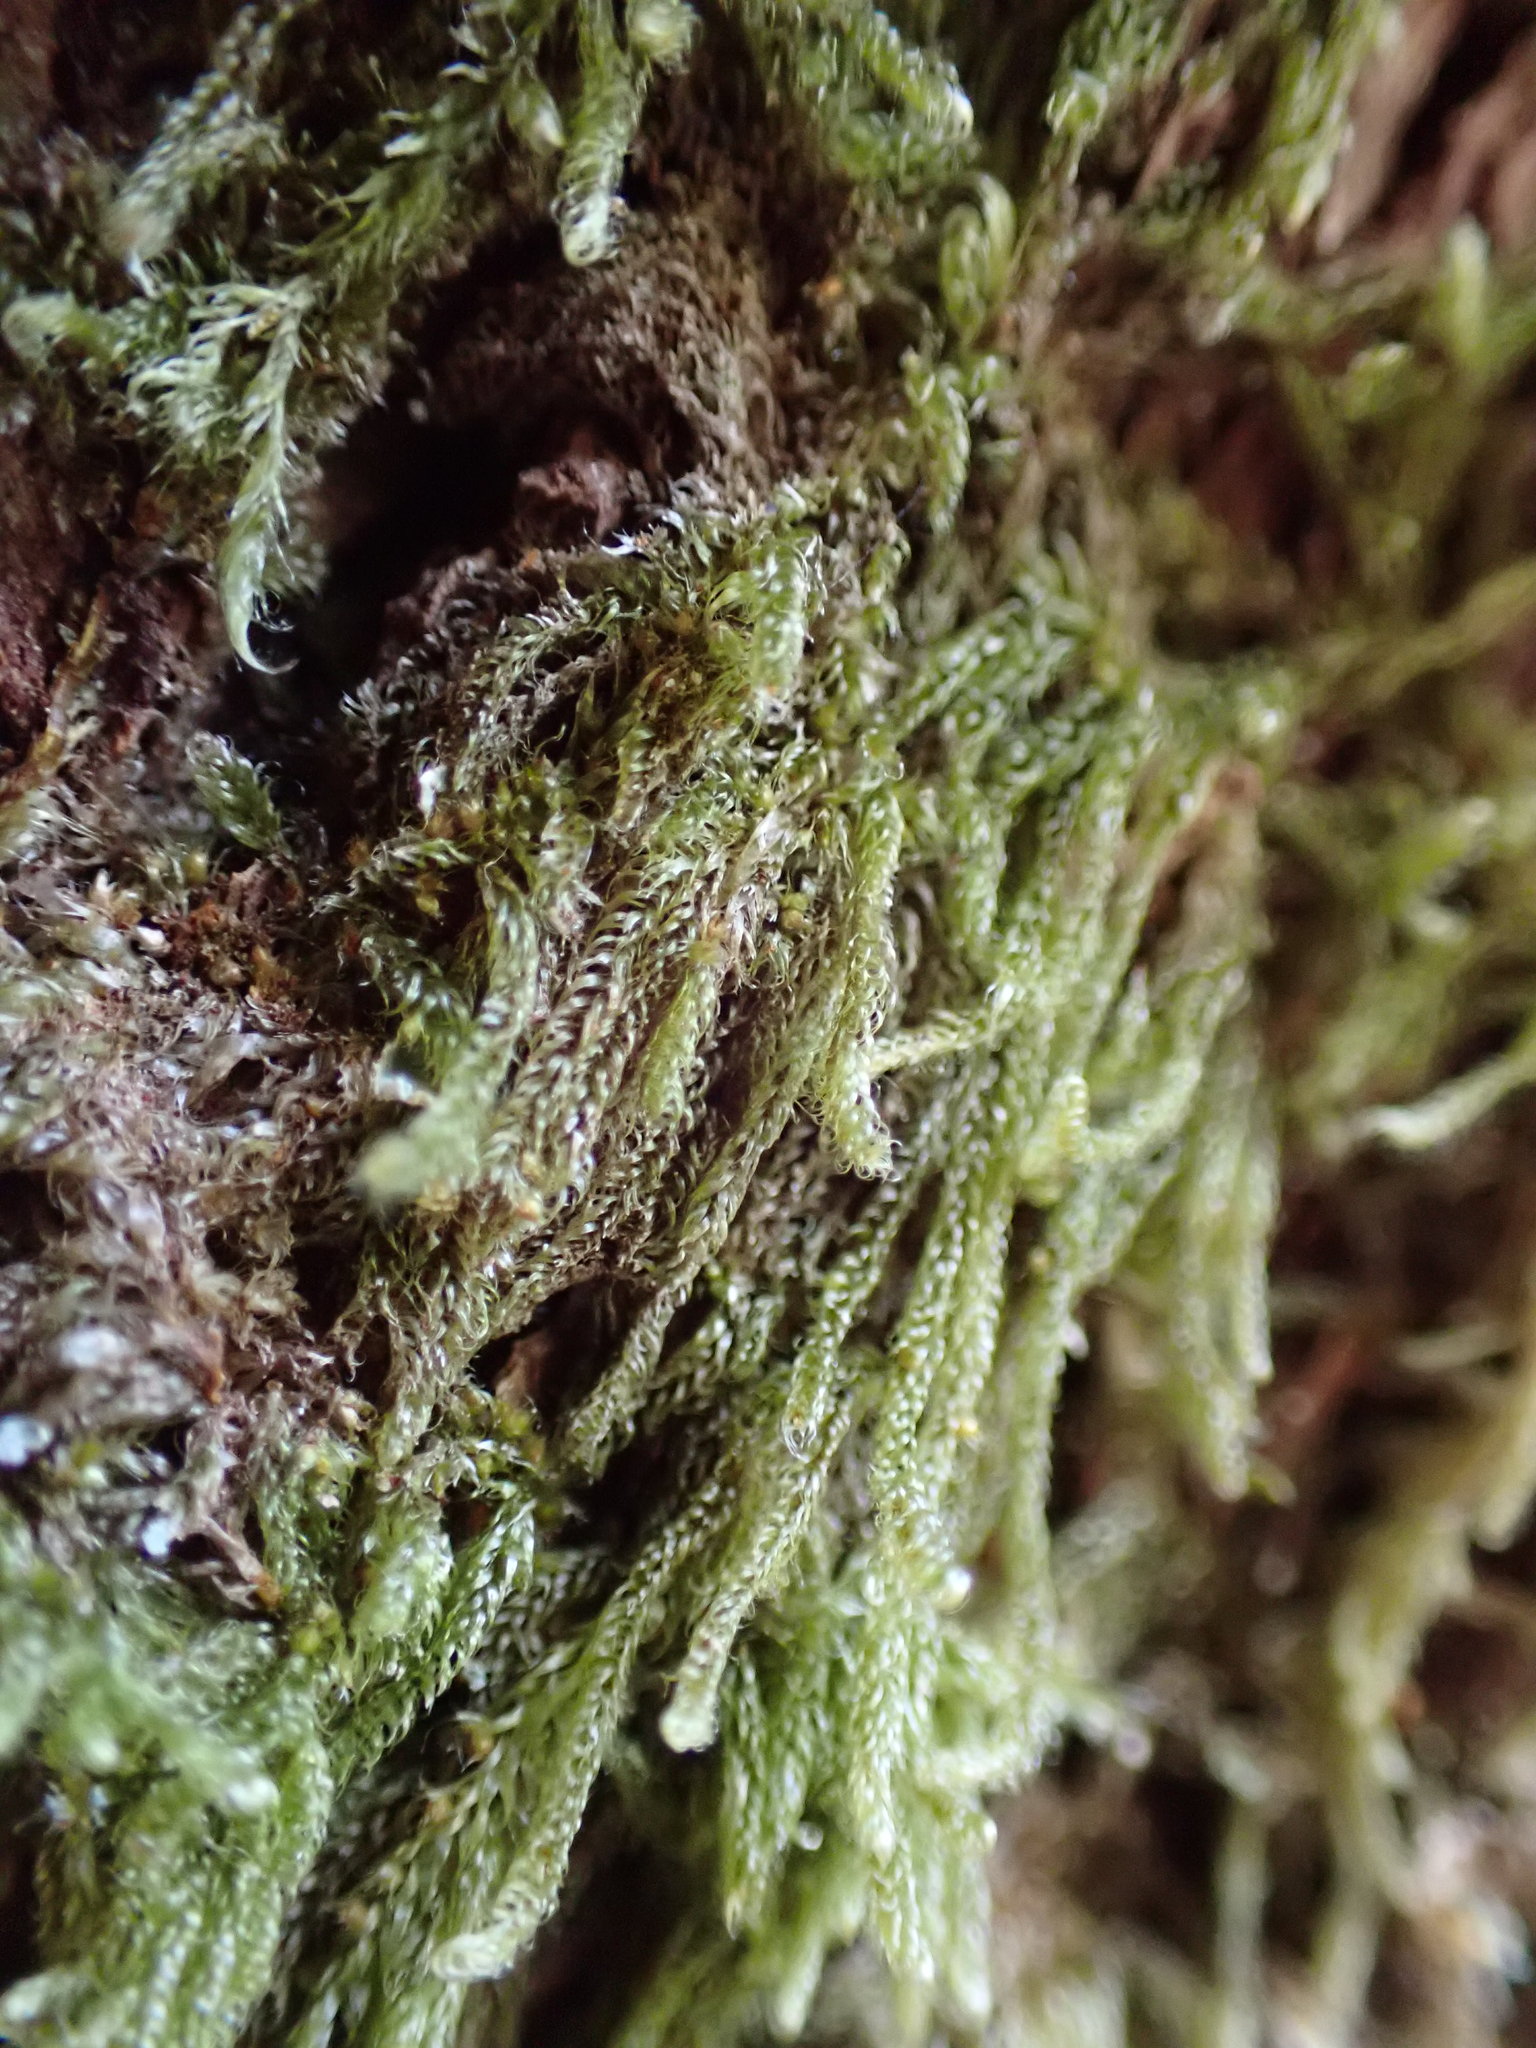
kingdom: Plantae
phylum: Bryophyta
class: Bryopsida
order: Hypnales
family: Pylaisiadelphaceae
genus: Trochophyllohypnum
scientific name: Trochophyllohypnum circinale
